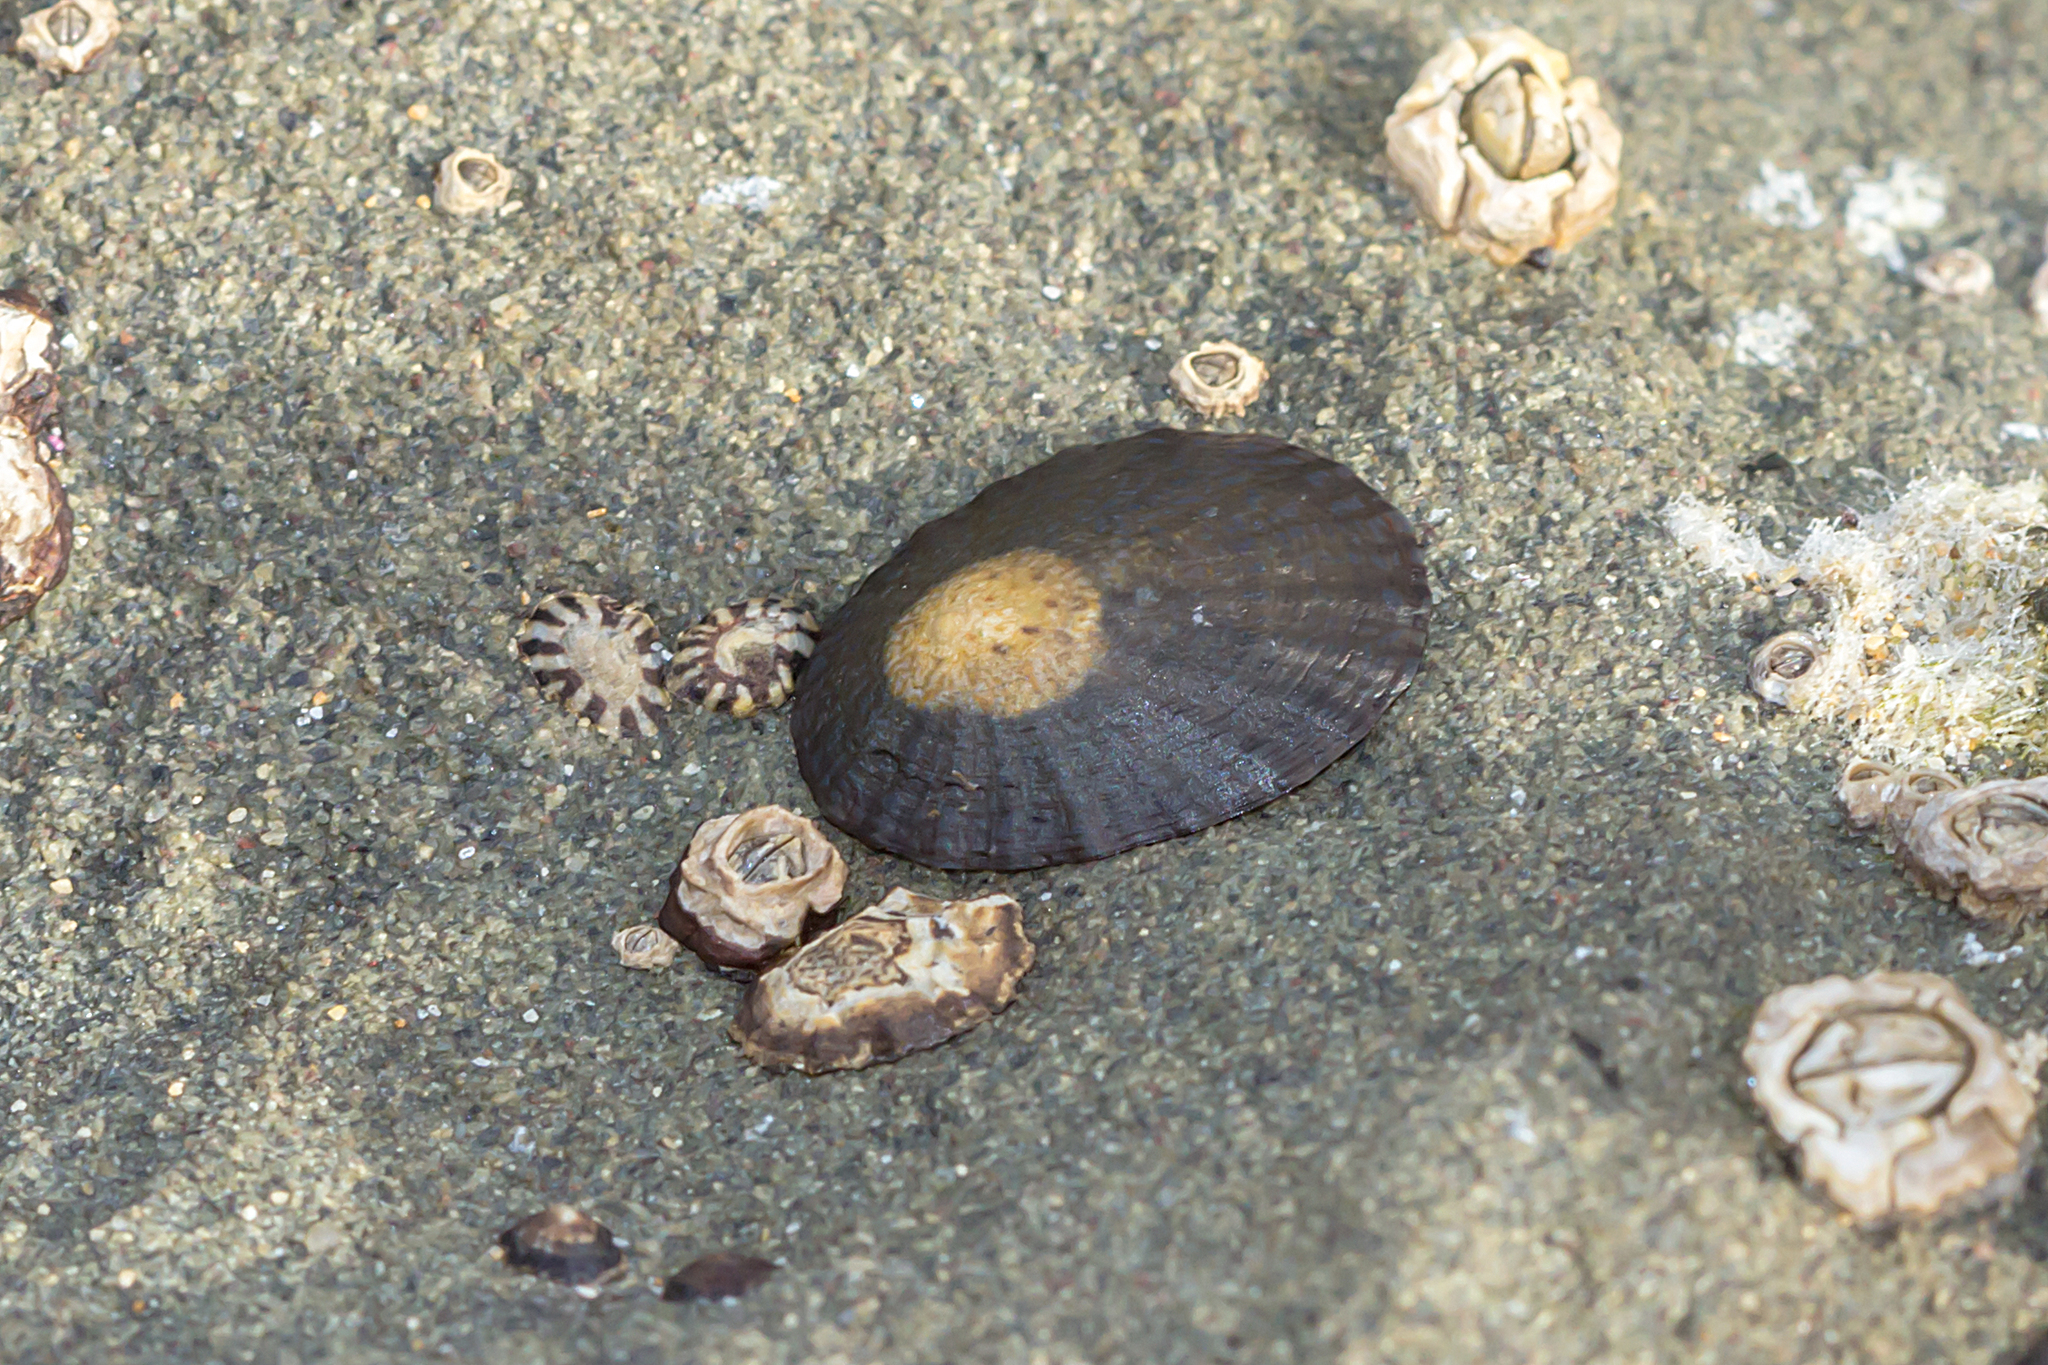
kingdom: Animalia
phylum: Mollusca
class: Gastropoda
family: Nacellidae
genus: Cellana
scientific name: Cellana tramoserica
